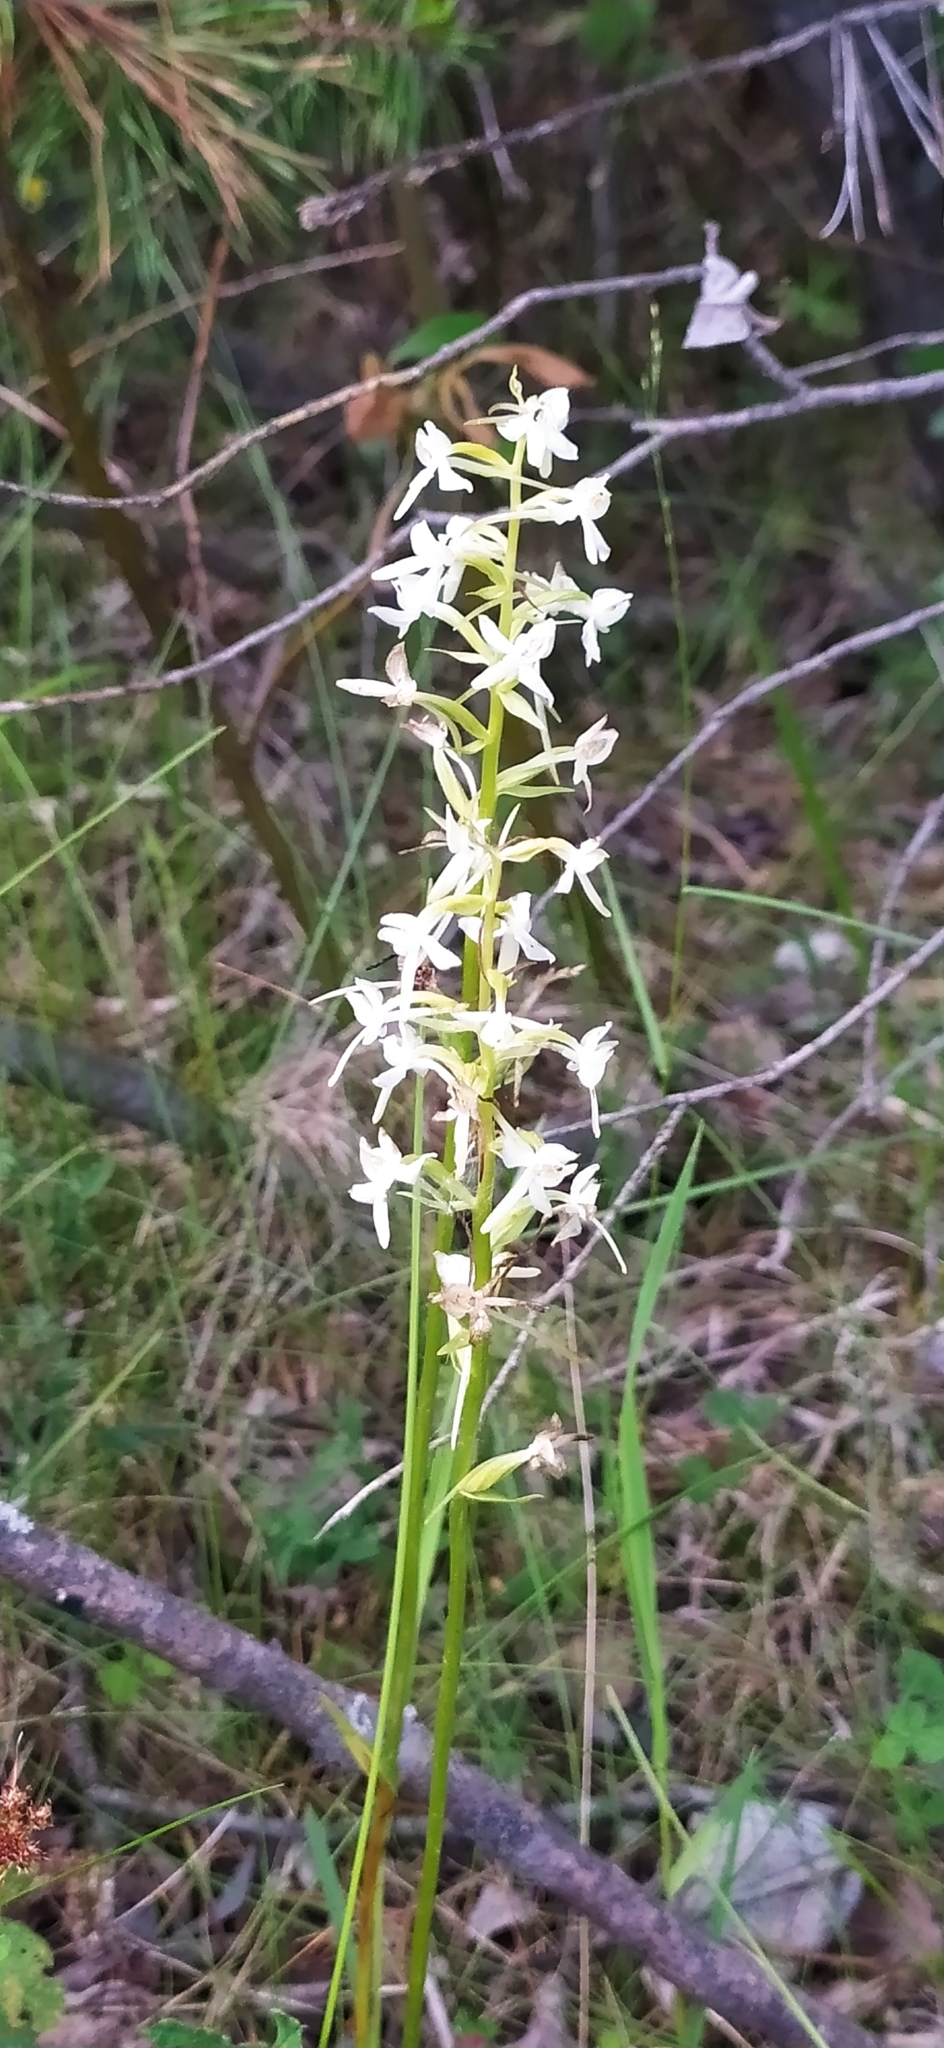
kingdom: Plantae
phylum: Tracheophyta
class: Liliopsida
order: Asparagales
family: Orchidaceae
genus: Platanthera
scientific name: Platanthera bifolia
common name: Lesser butterfly-orchid
